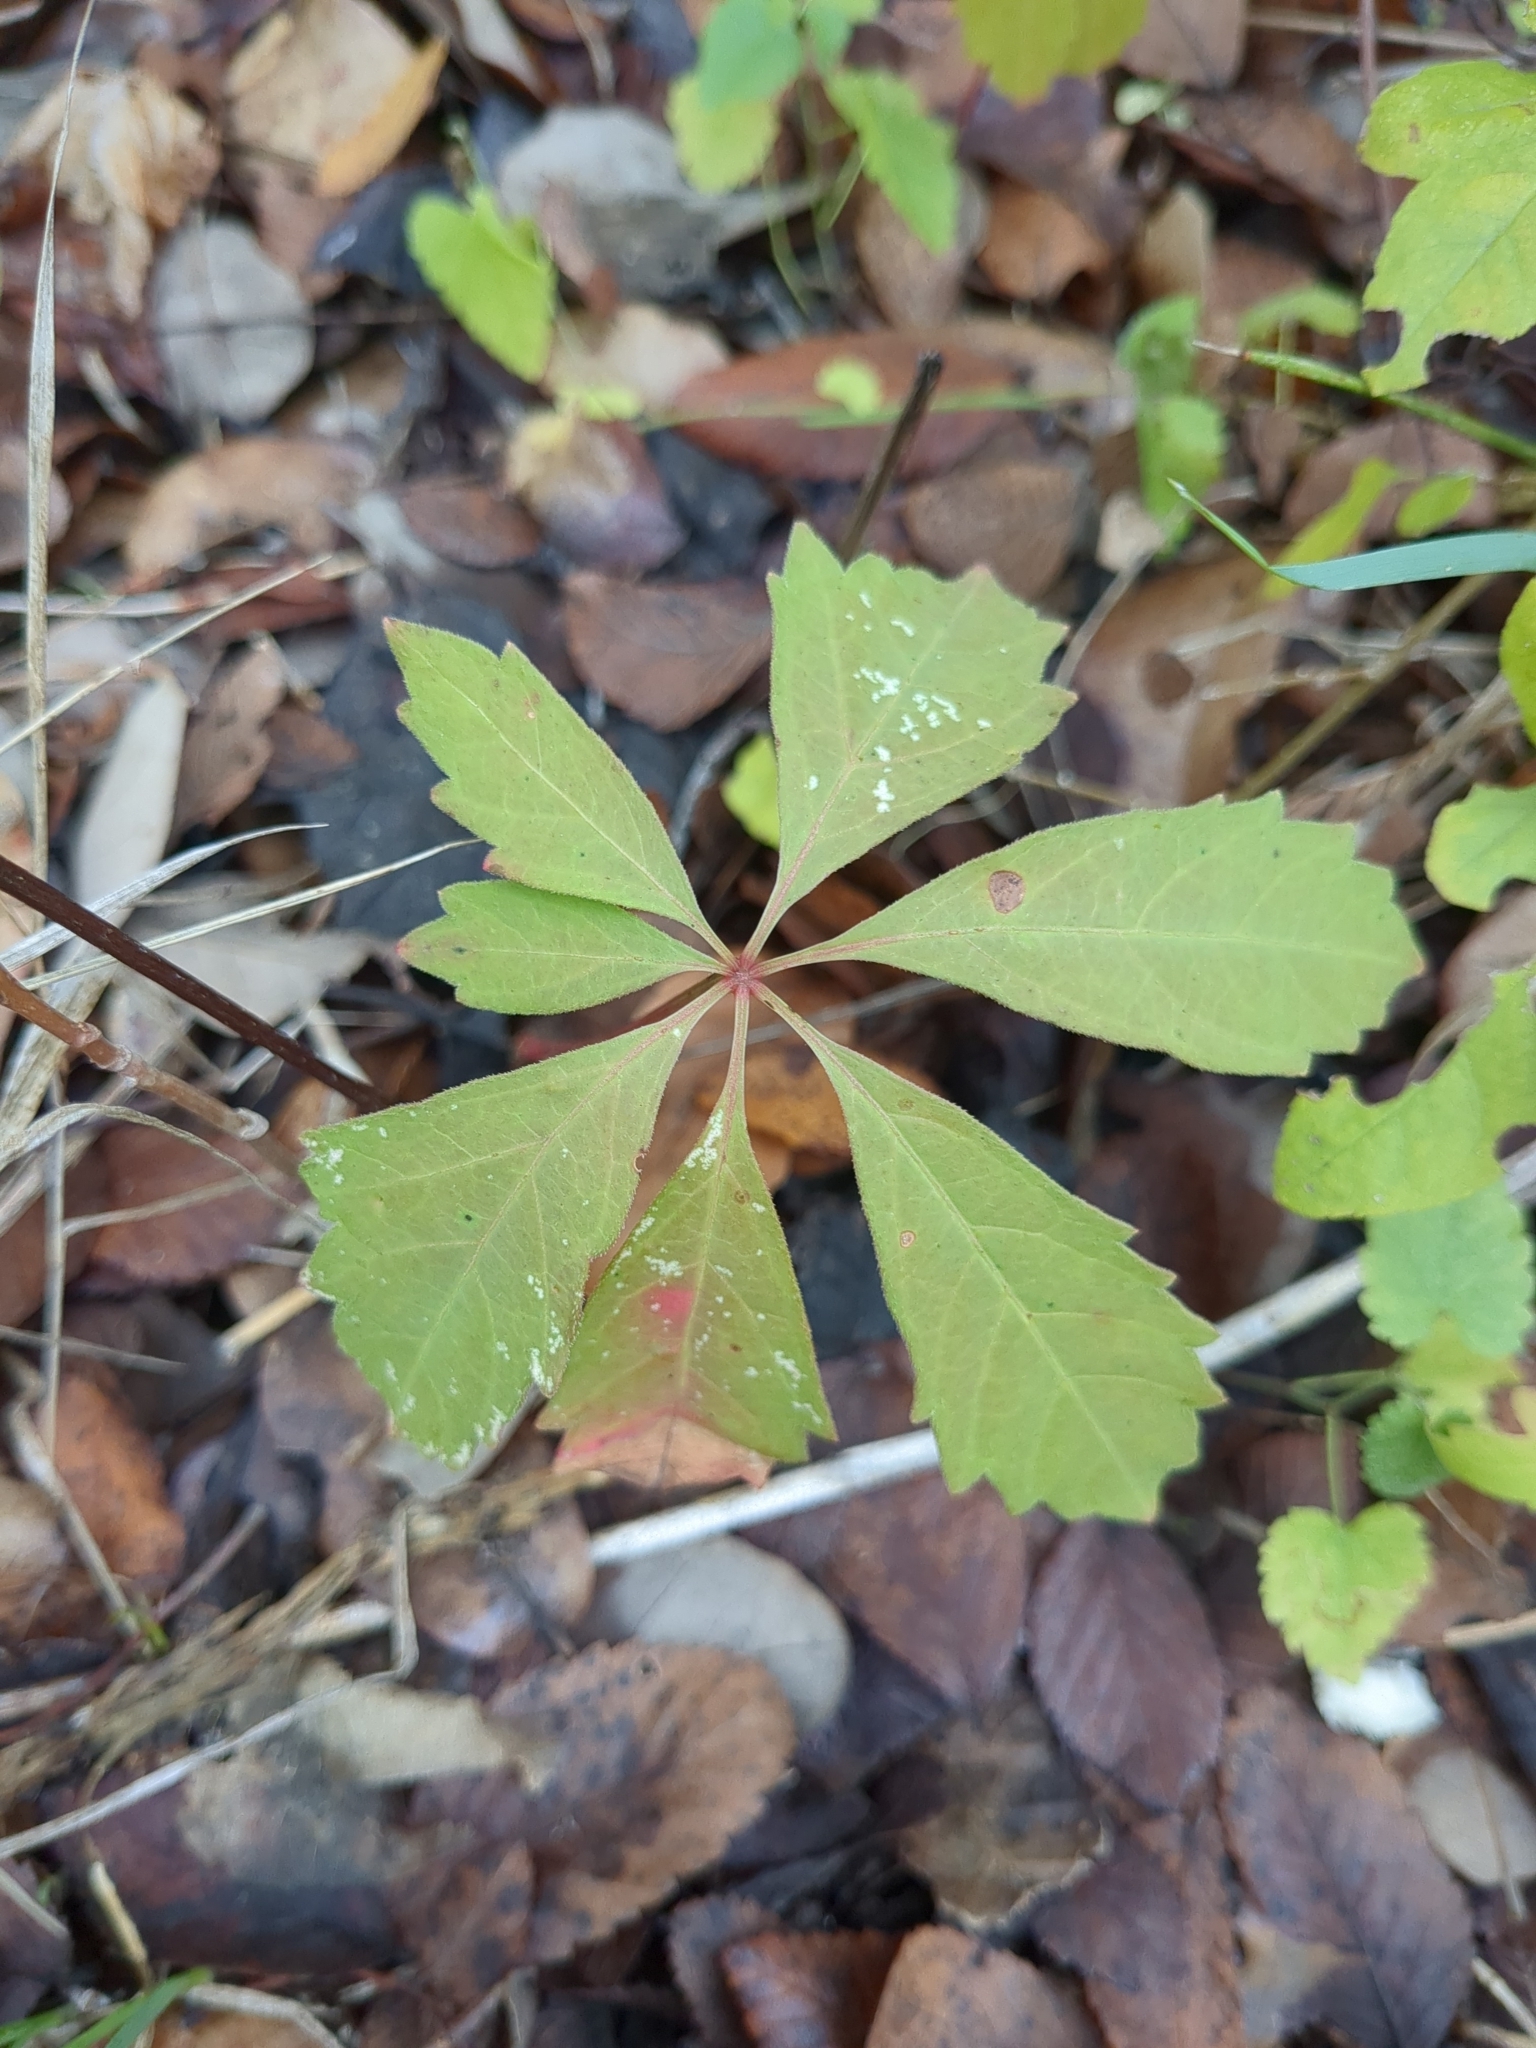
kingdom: Plantae
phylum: Tracheophyta
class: Magnoliopsida
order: Vitales
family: Vitaceae
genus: Parthenocissus
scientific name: Parthenocissus heptaphylla
